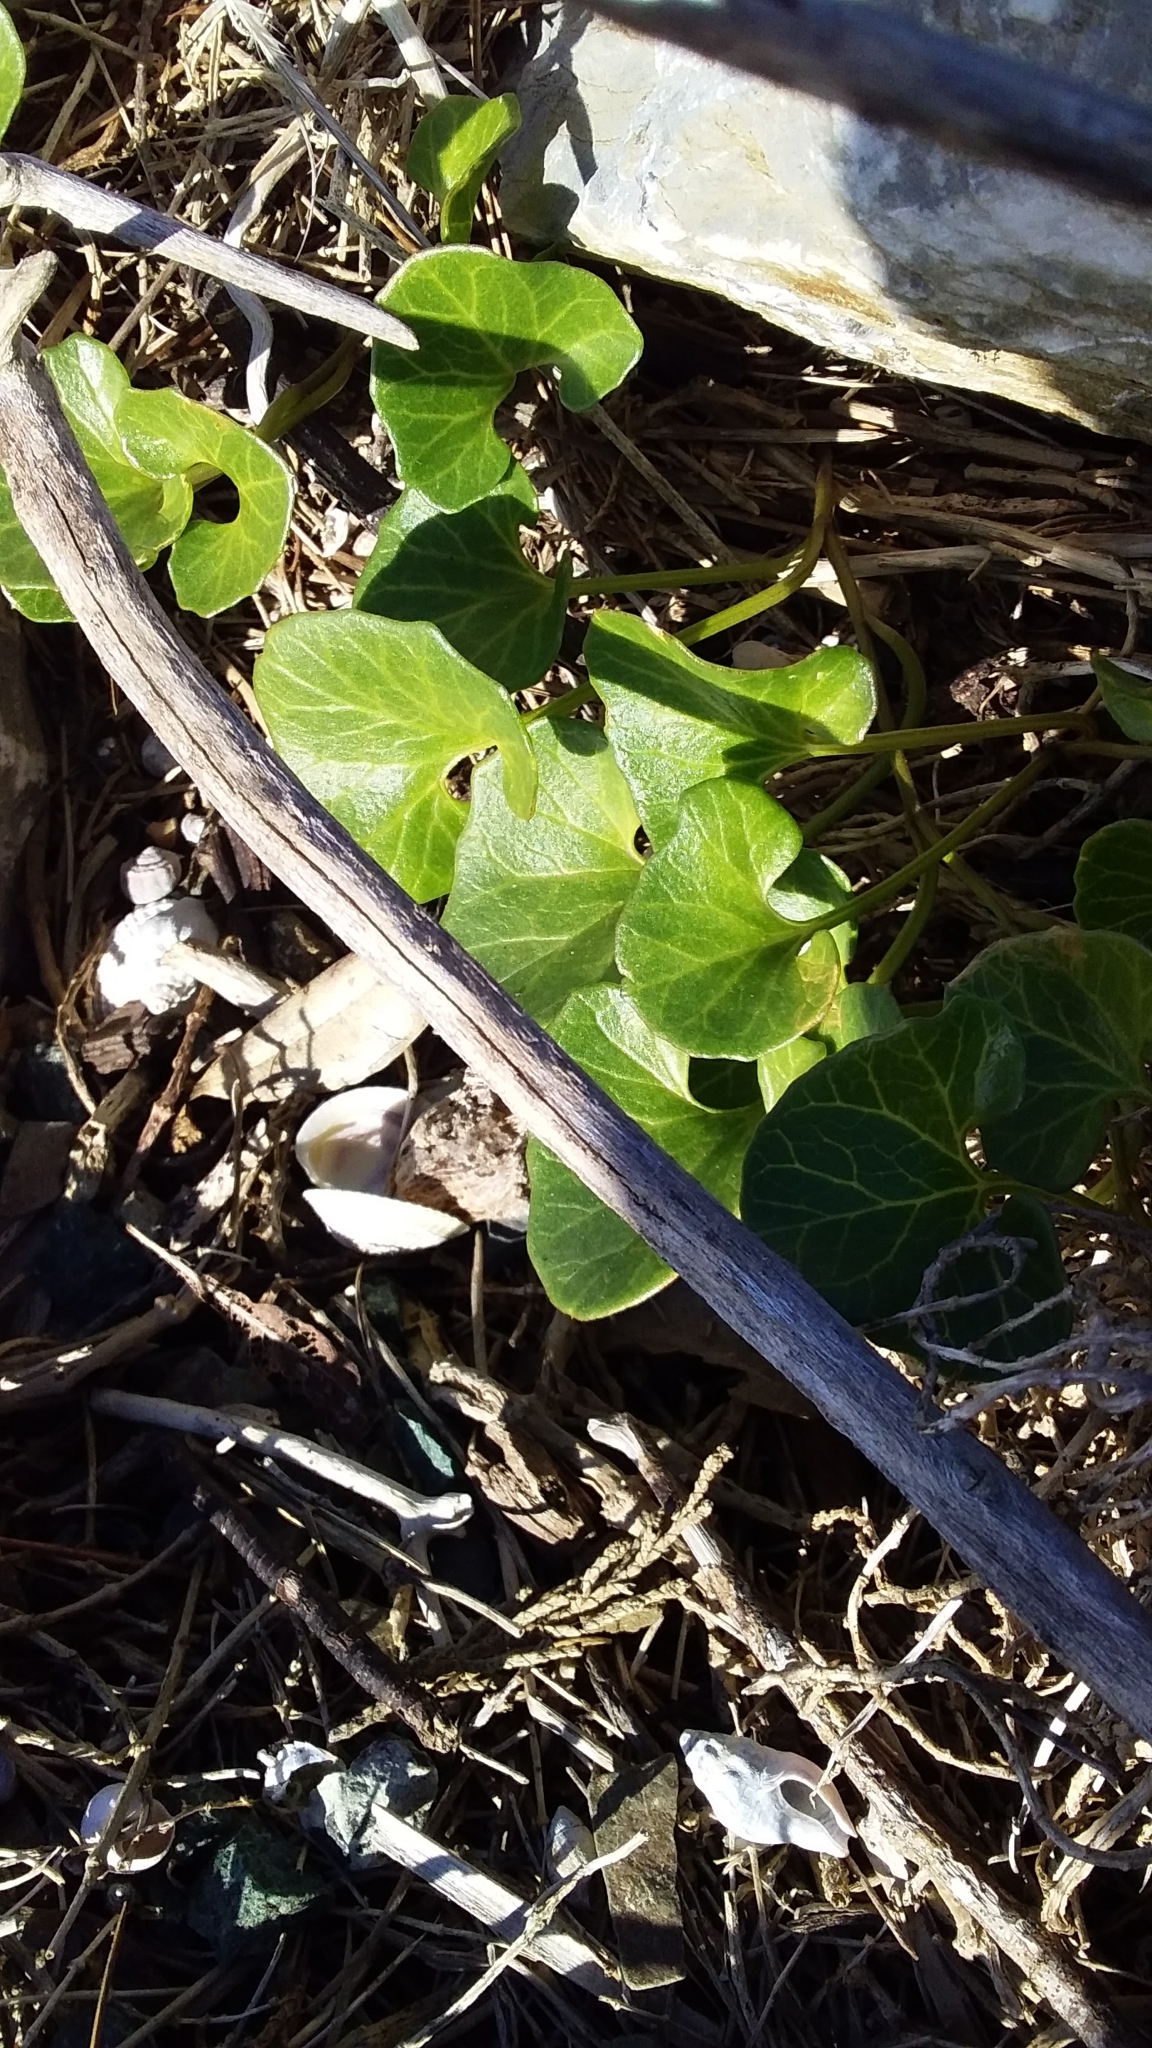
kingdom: Plantae
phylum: Tracheophyta
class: Magnoliopsida
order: Solanales
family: Convolvulaceae
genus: Calystegia
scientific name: Calystegia soldanella
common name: Sea bindweed
